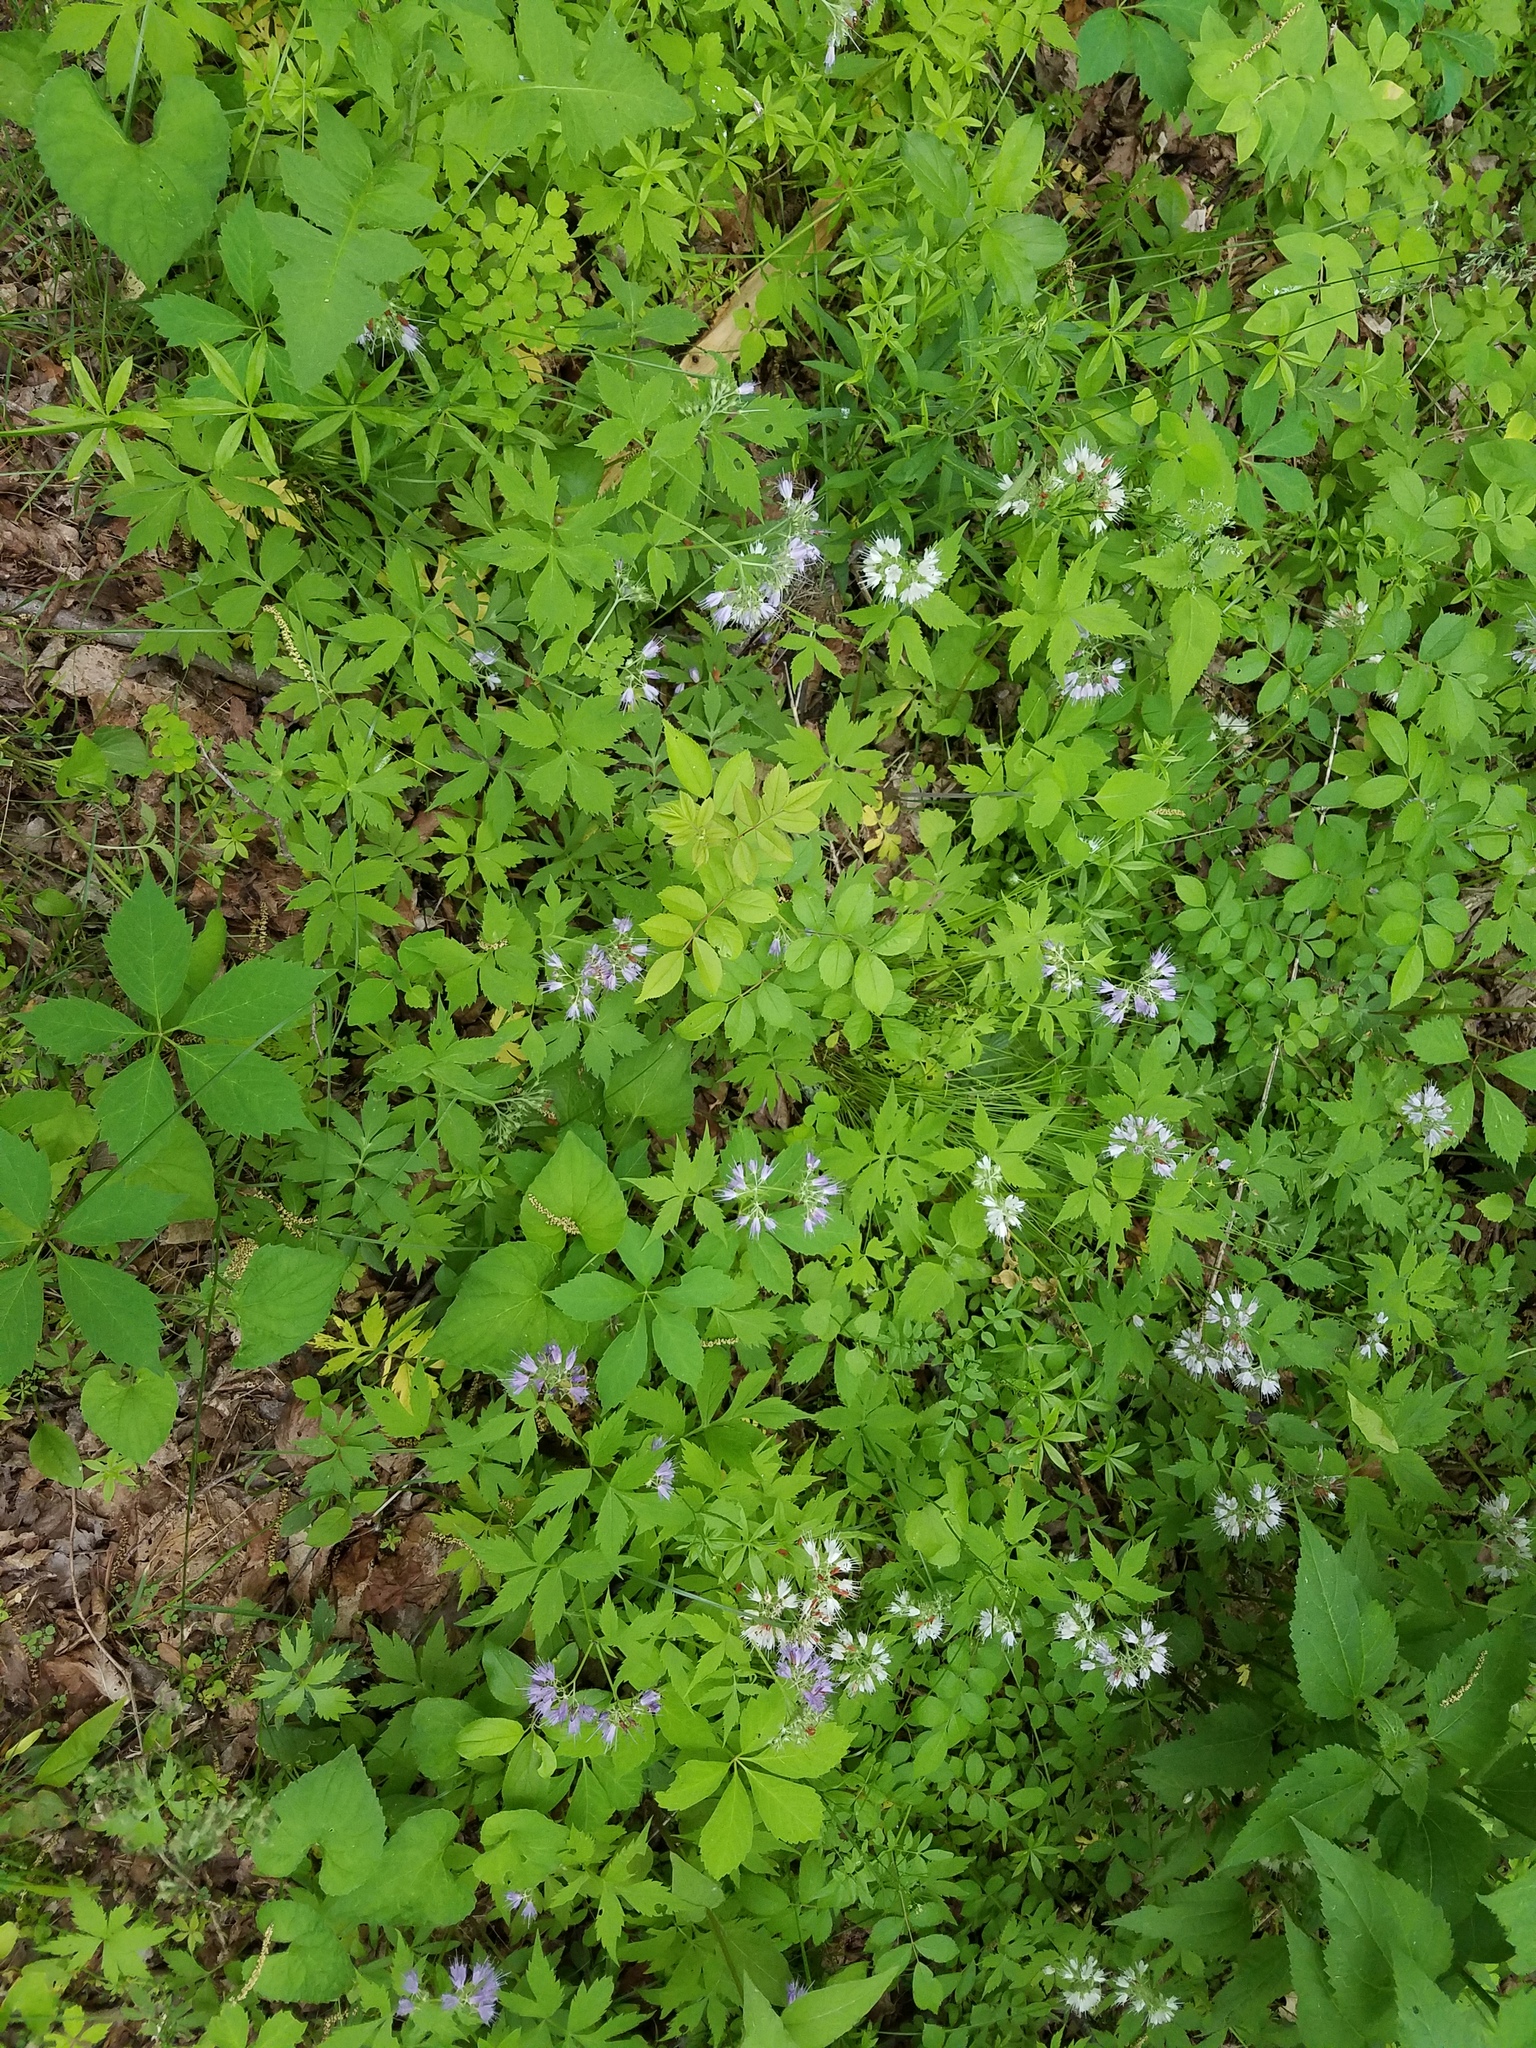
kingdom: Plantae
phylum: Tracheophyta
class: Magnoliopsida
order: Boraginales
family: Hydrophyllaceae
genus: Hydrophyllum
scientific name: Hydrophyllum virginianum
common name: Virginia waterleaf
